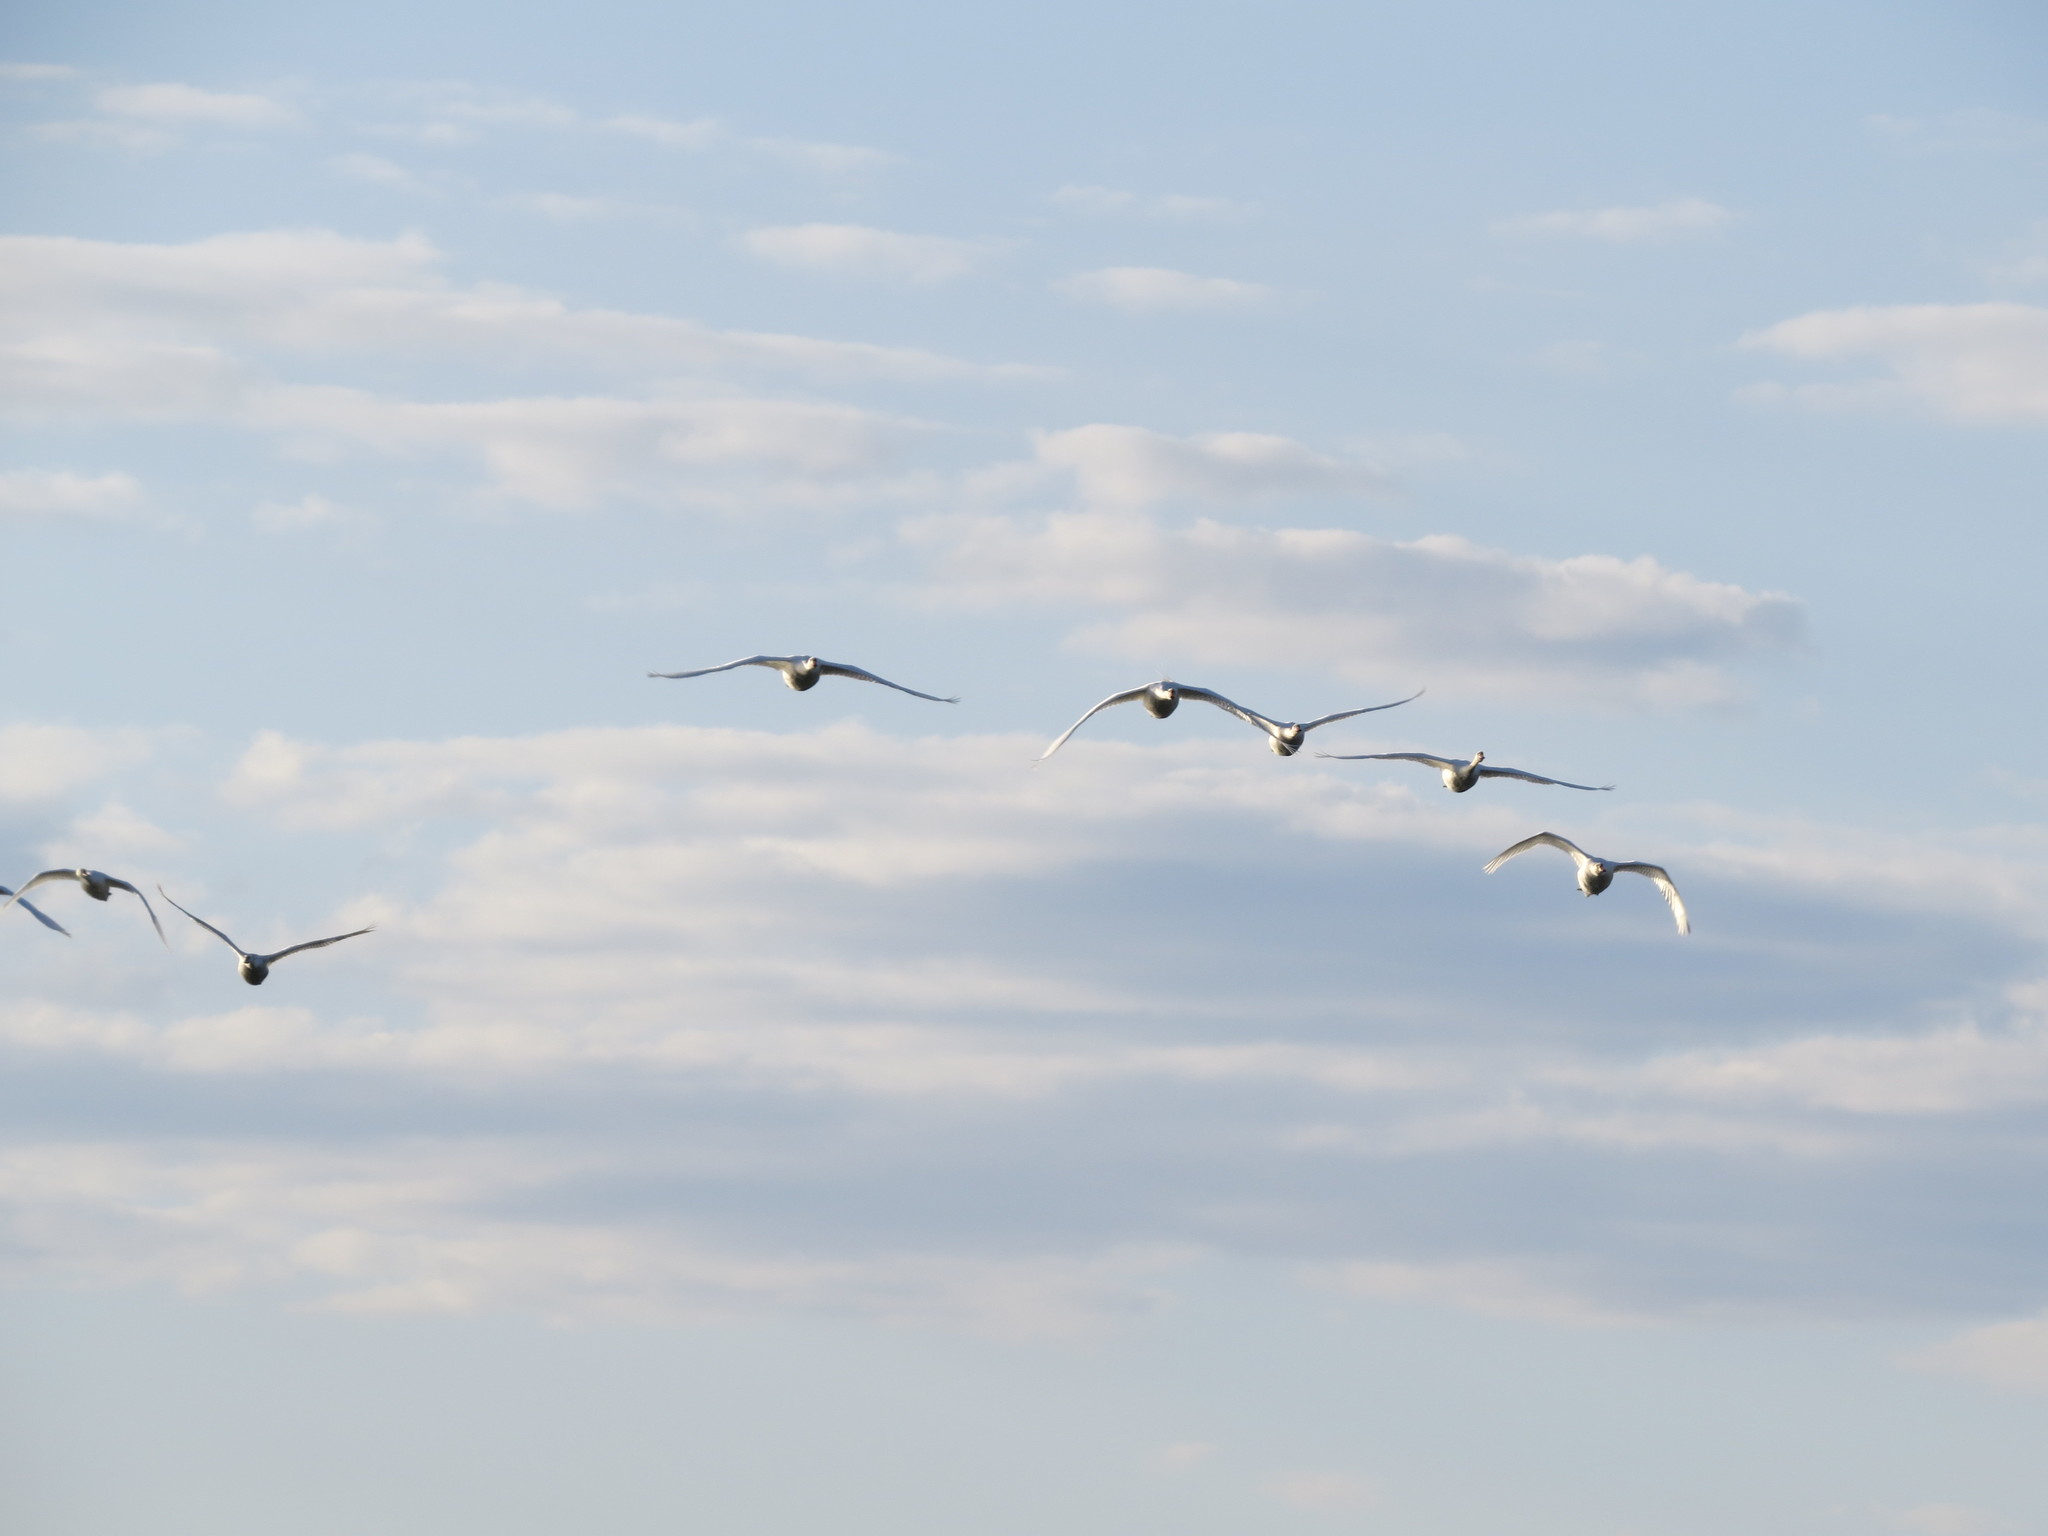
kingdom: Animalia
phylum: Chordata
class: Aves
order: Anseriformes
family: Anatidae
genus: Cygnus
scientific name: Cygnus olor
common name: Mute swan
